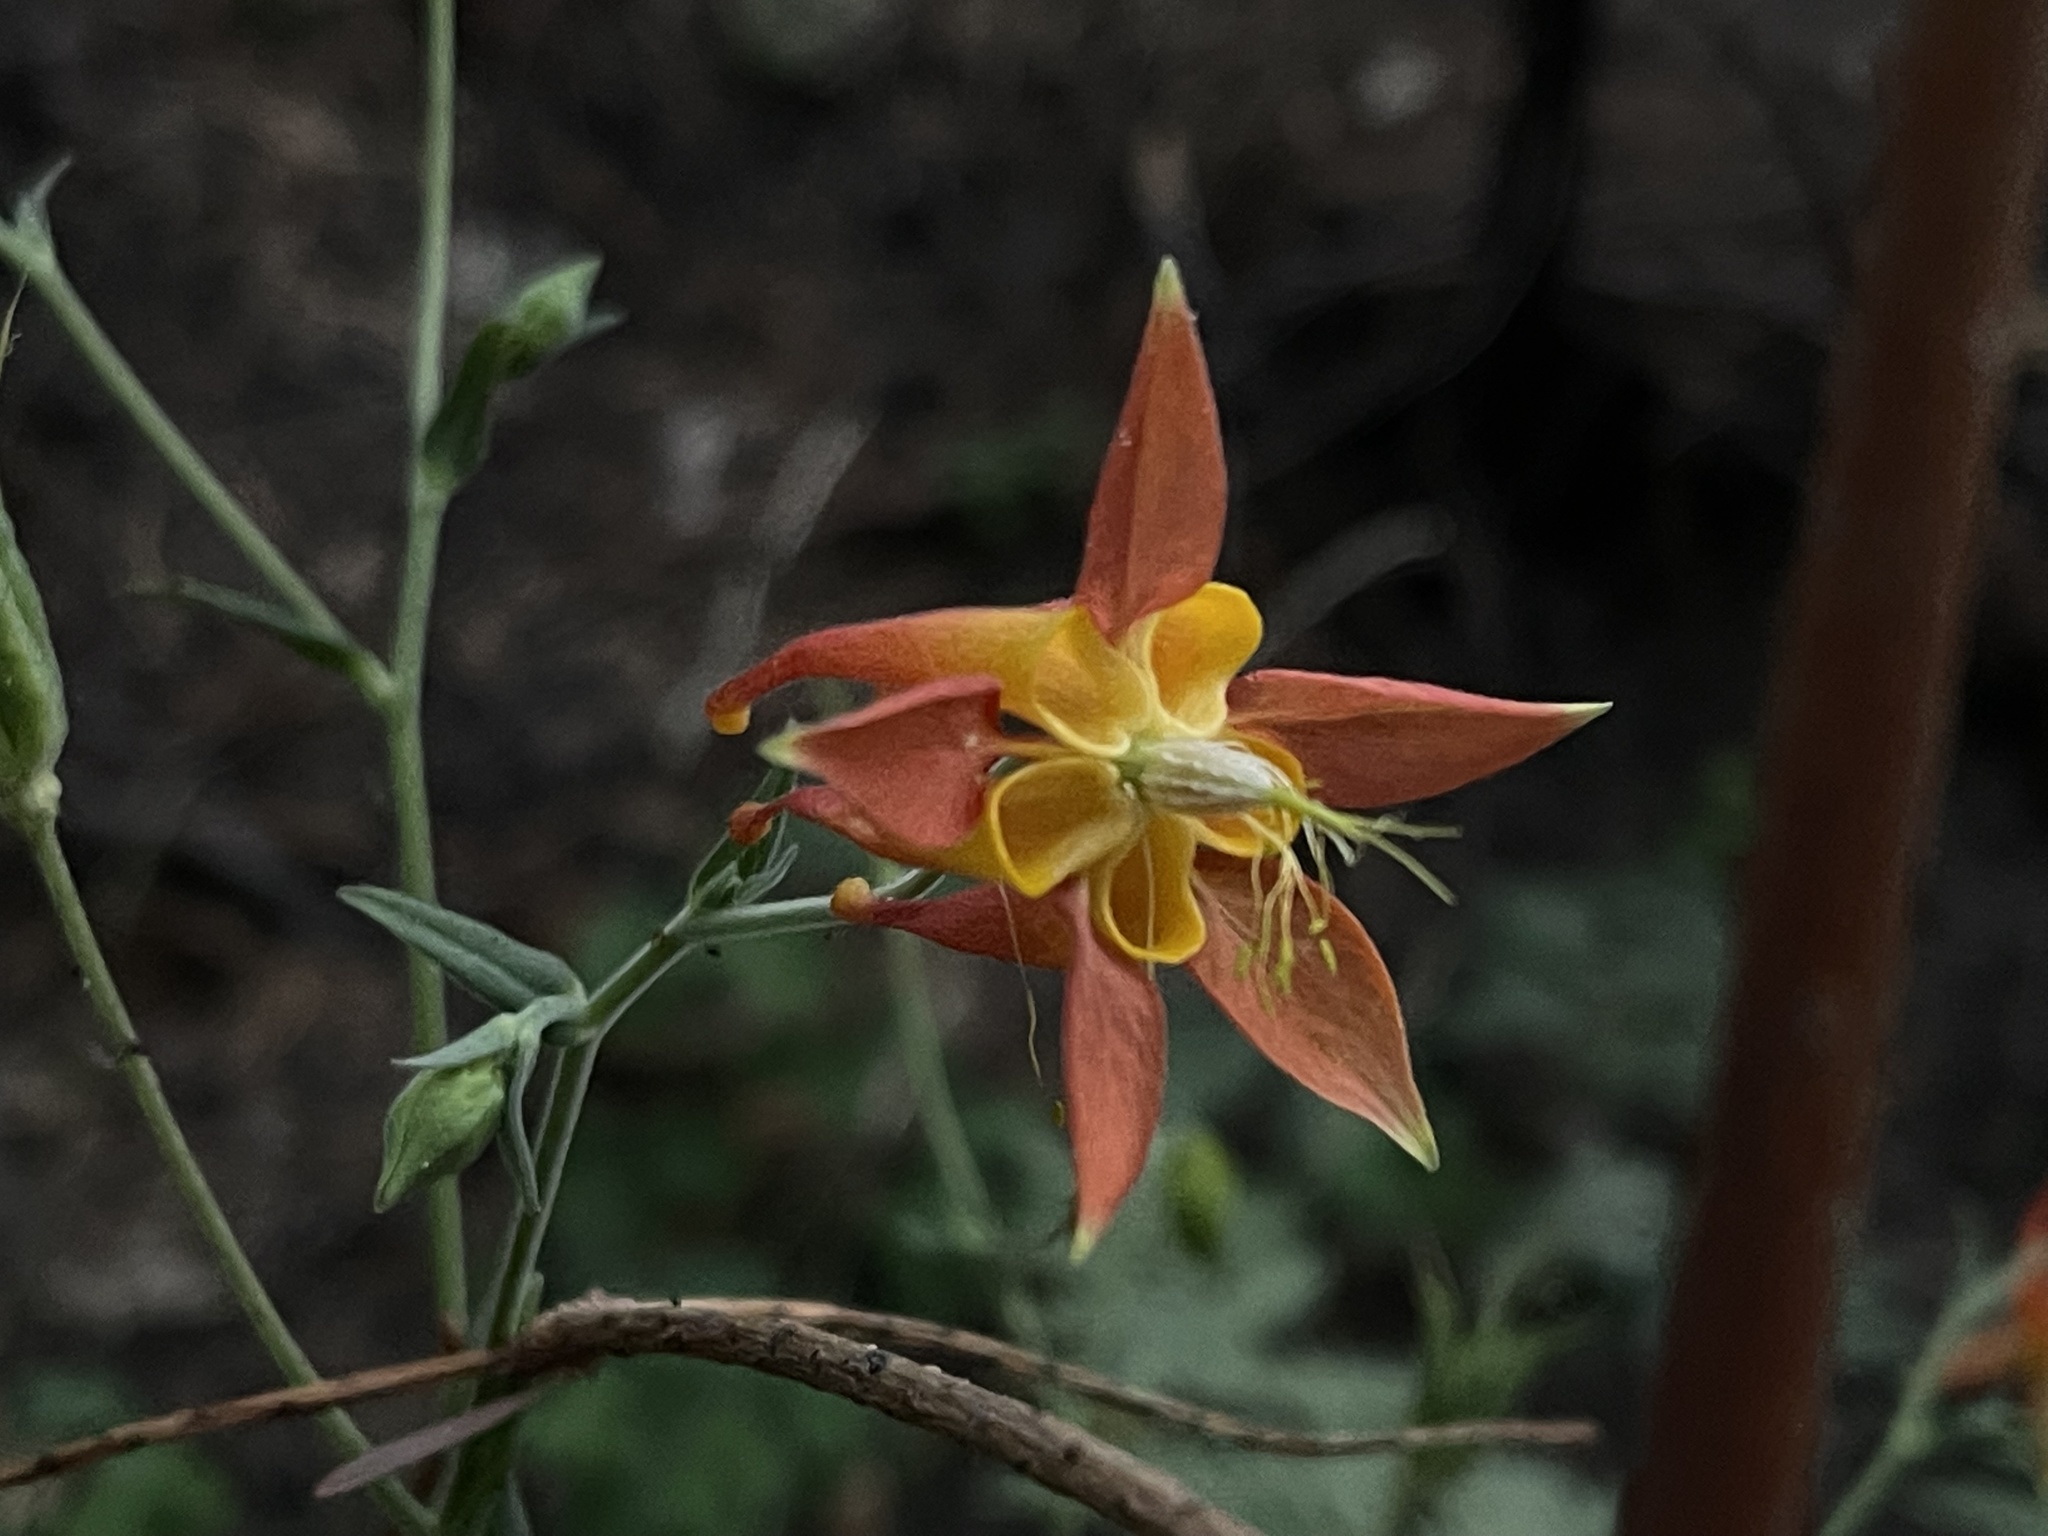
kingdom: Plantae
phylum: Tracheophyta
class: Magnoliopsida
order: Ranunculales
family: Ranunculaceae
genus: Aquilegia
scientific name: Aquilegia formosa
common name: Sitka columbine
